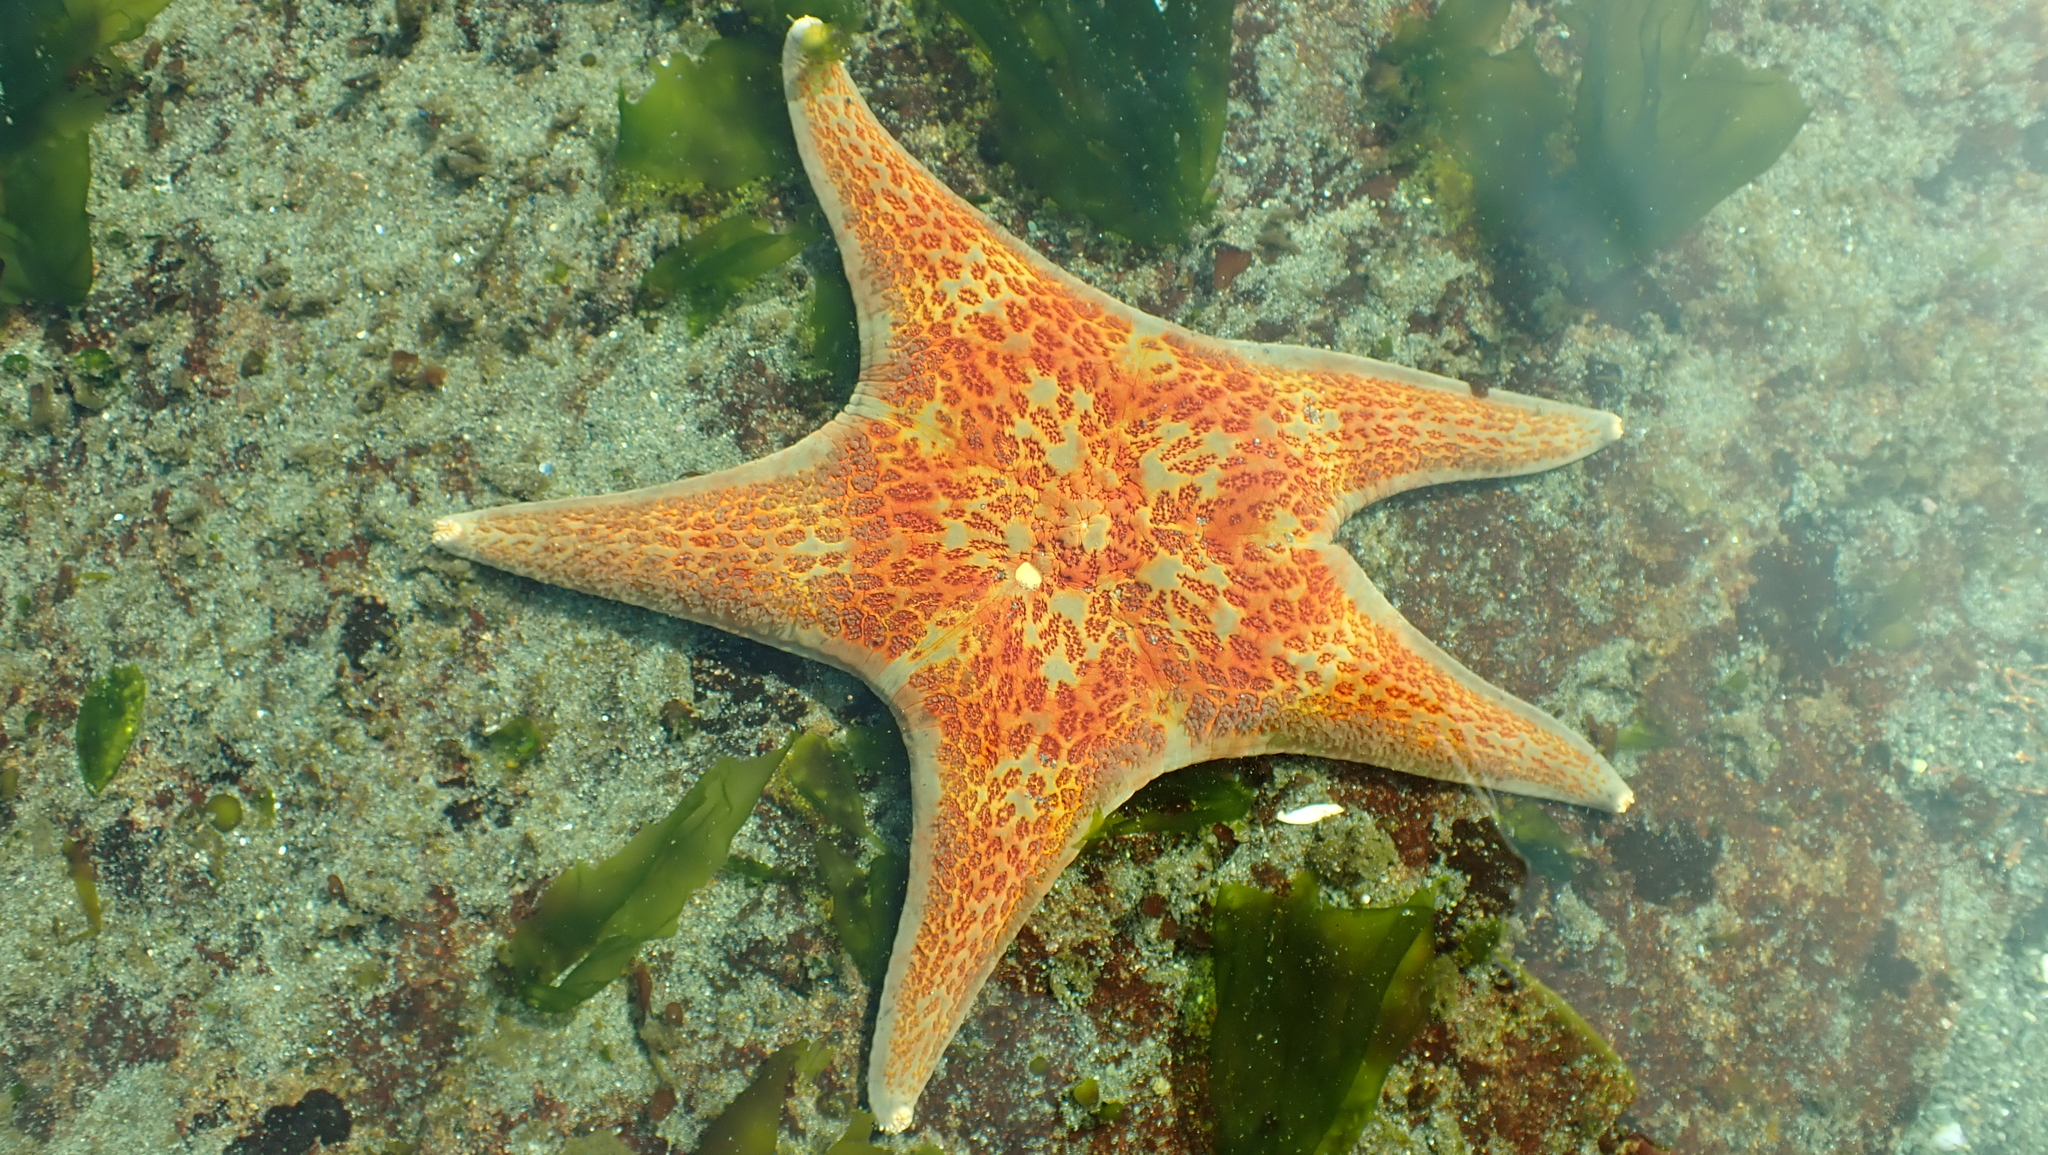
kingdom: Animalia
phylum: Echinodermata
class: Asteroidea
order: Valvatida
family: Asteropseidae
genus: Dermasterias
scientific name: Dermasterias imbricata
